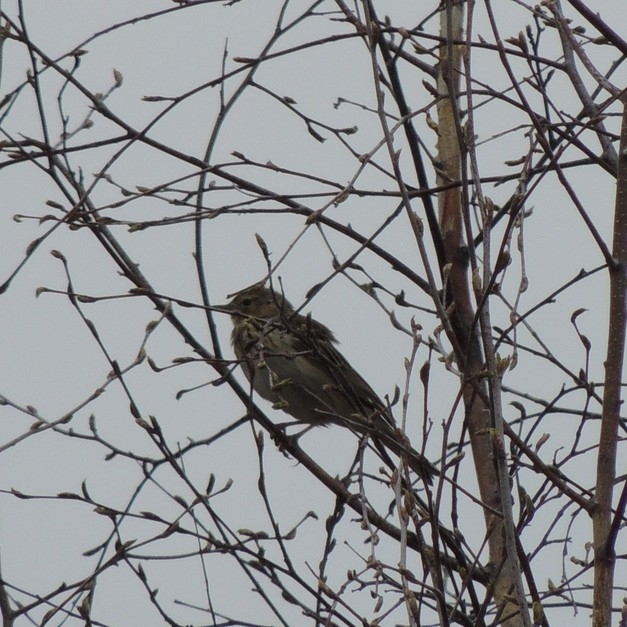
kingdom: Animalia
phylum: Chordata
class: Aves
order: Passeriformes
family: Motacillidae
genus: Anthus
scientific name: Anthus trivialis
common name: Tree pipit
